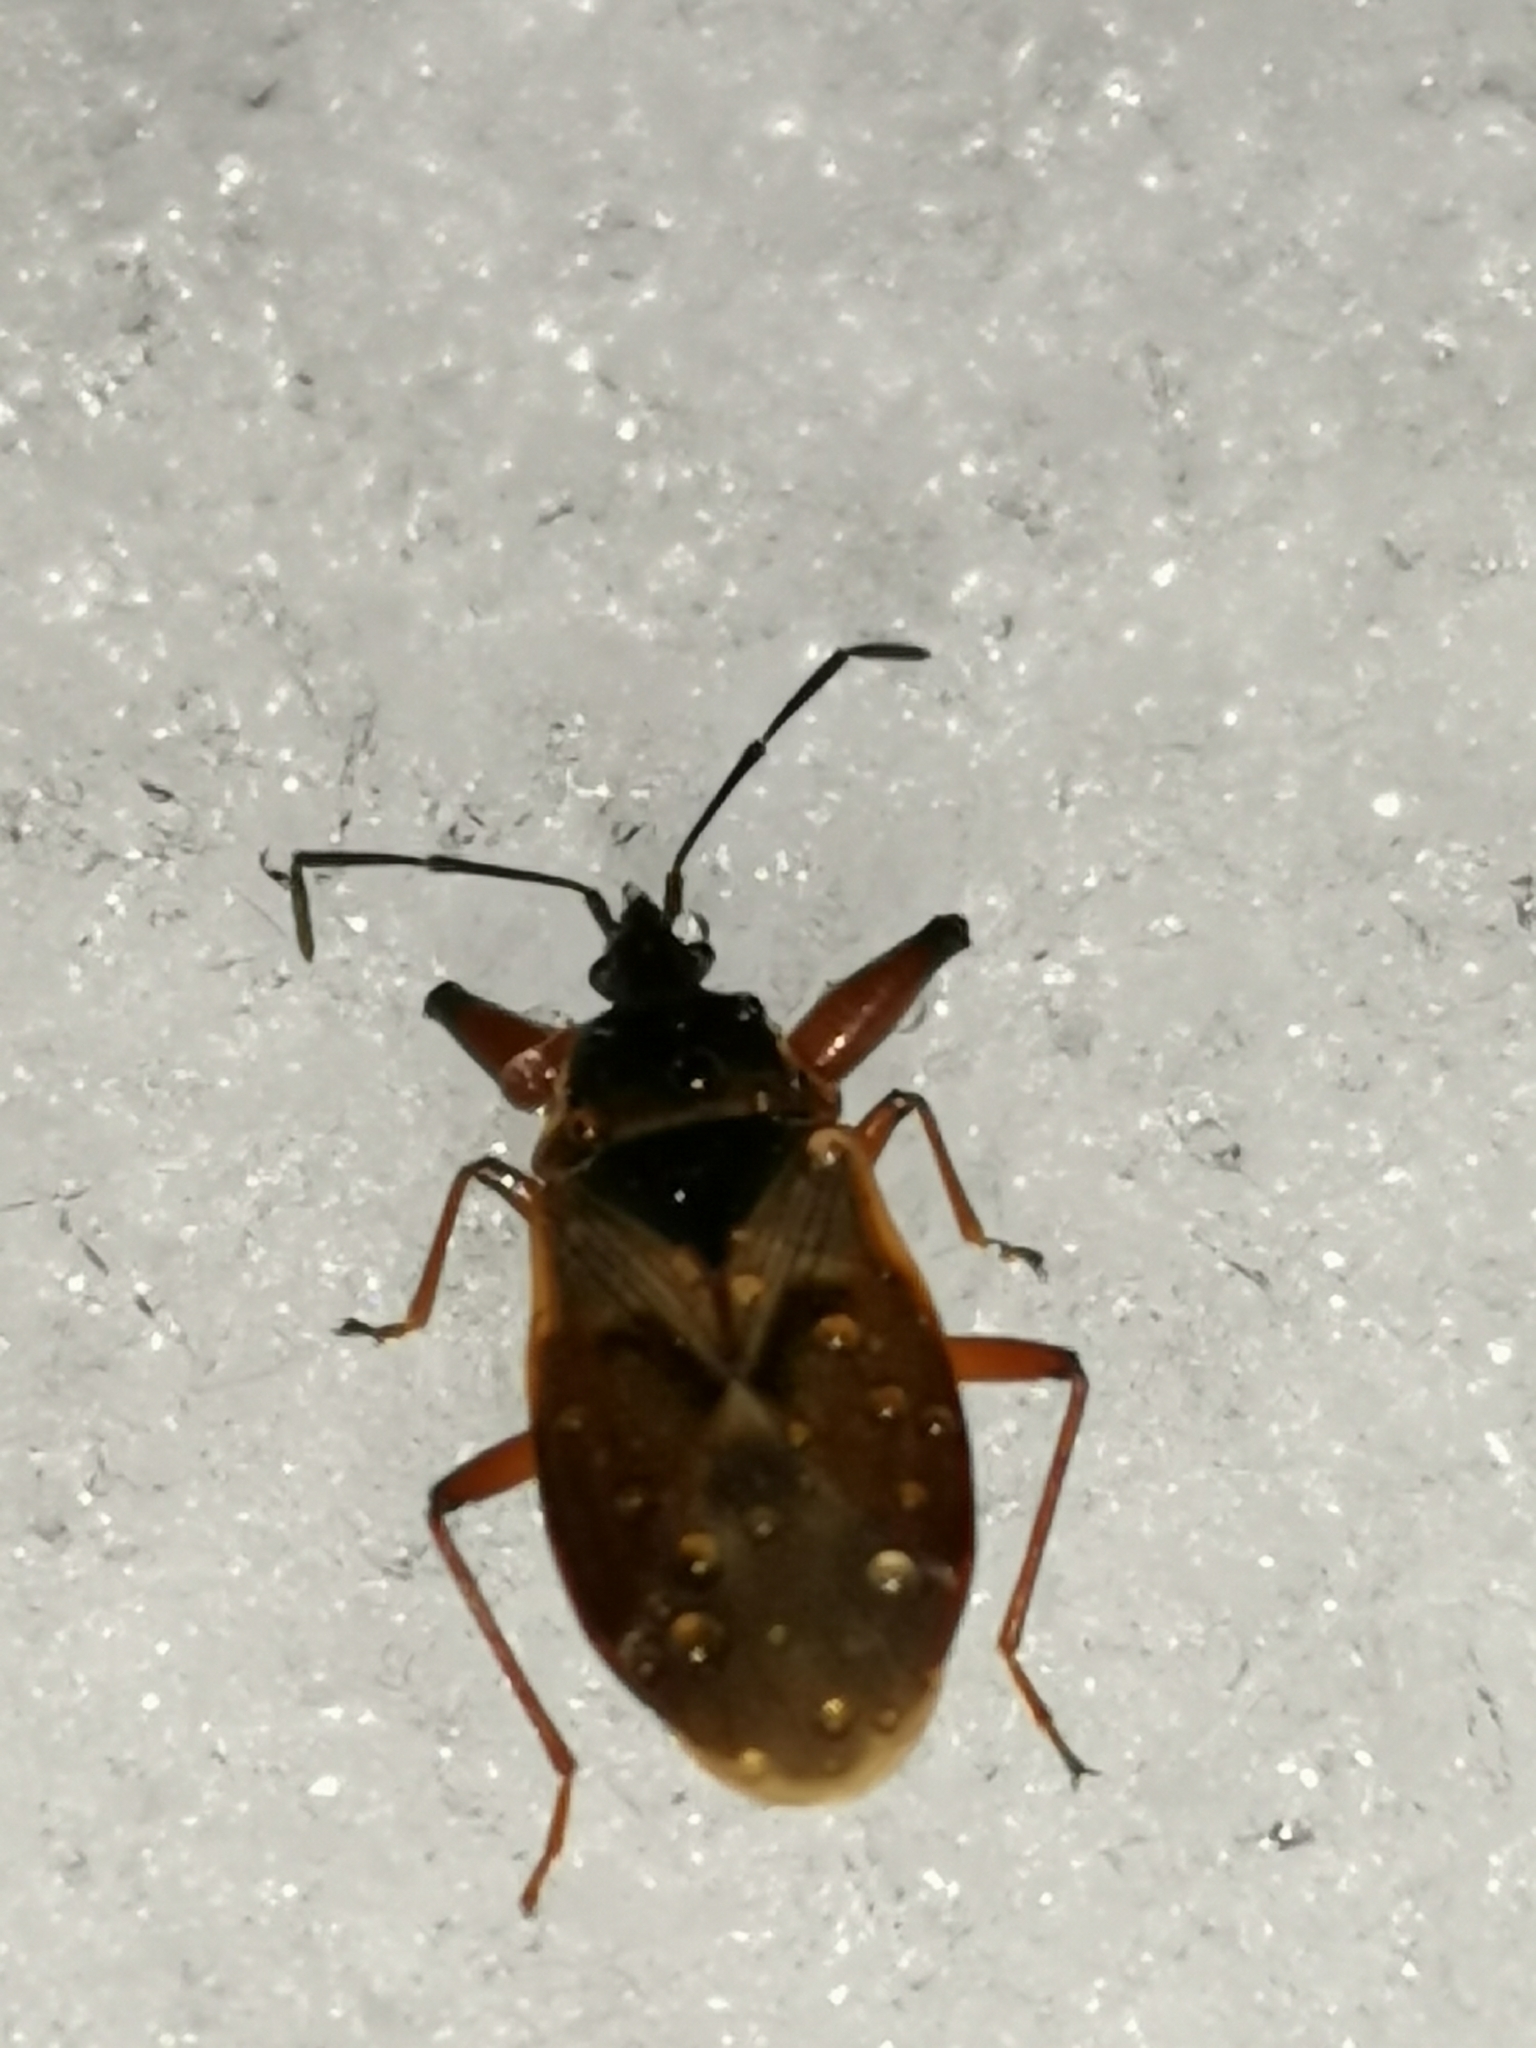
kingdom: Animalia
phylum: Arthropoda
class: Insecta
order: Hemiptera
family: Rhyparochromidae
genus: Gastrodes
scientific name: Gastrodes abietum
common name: Spruce cone bug
